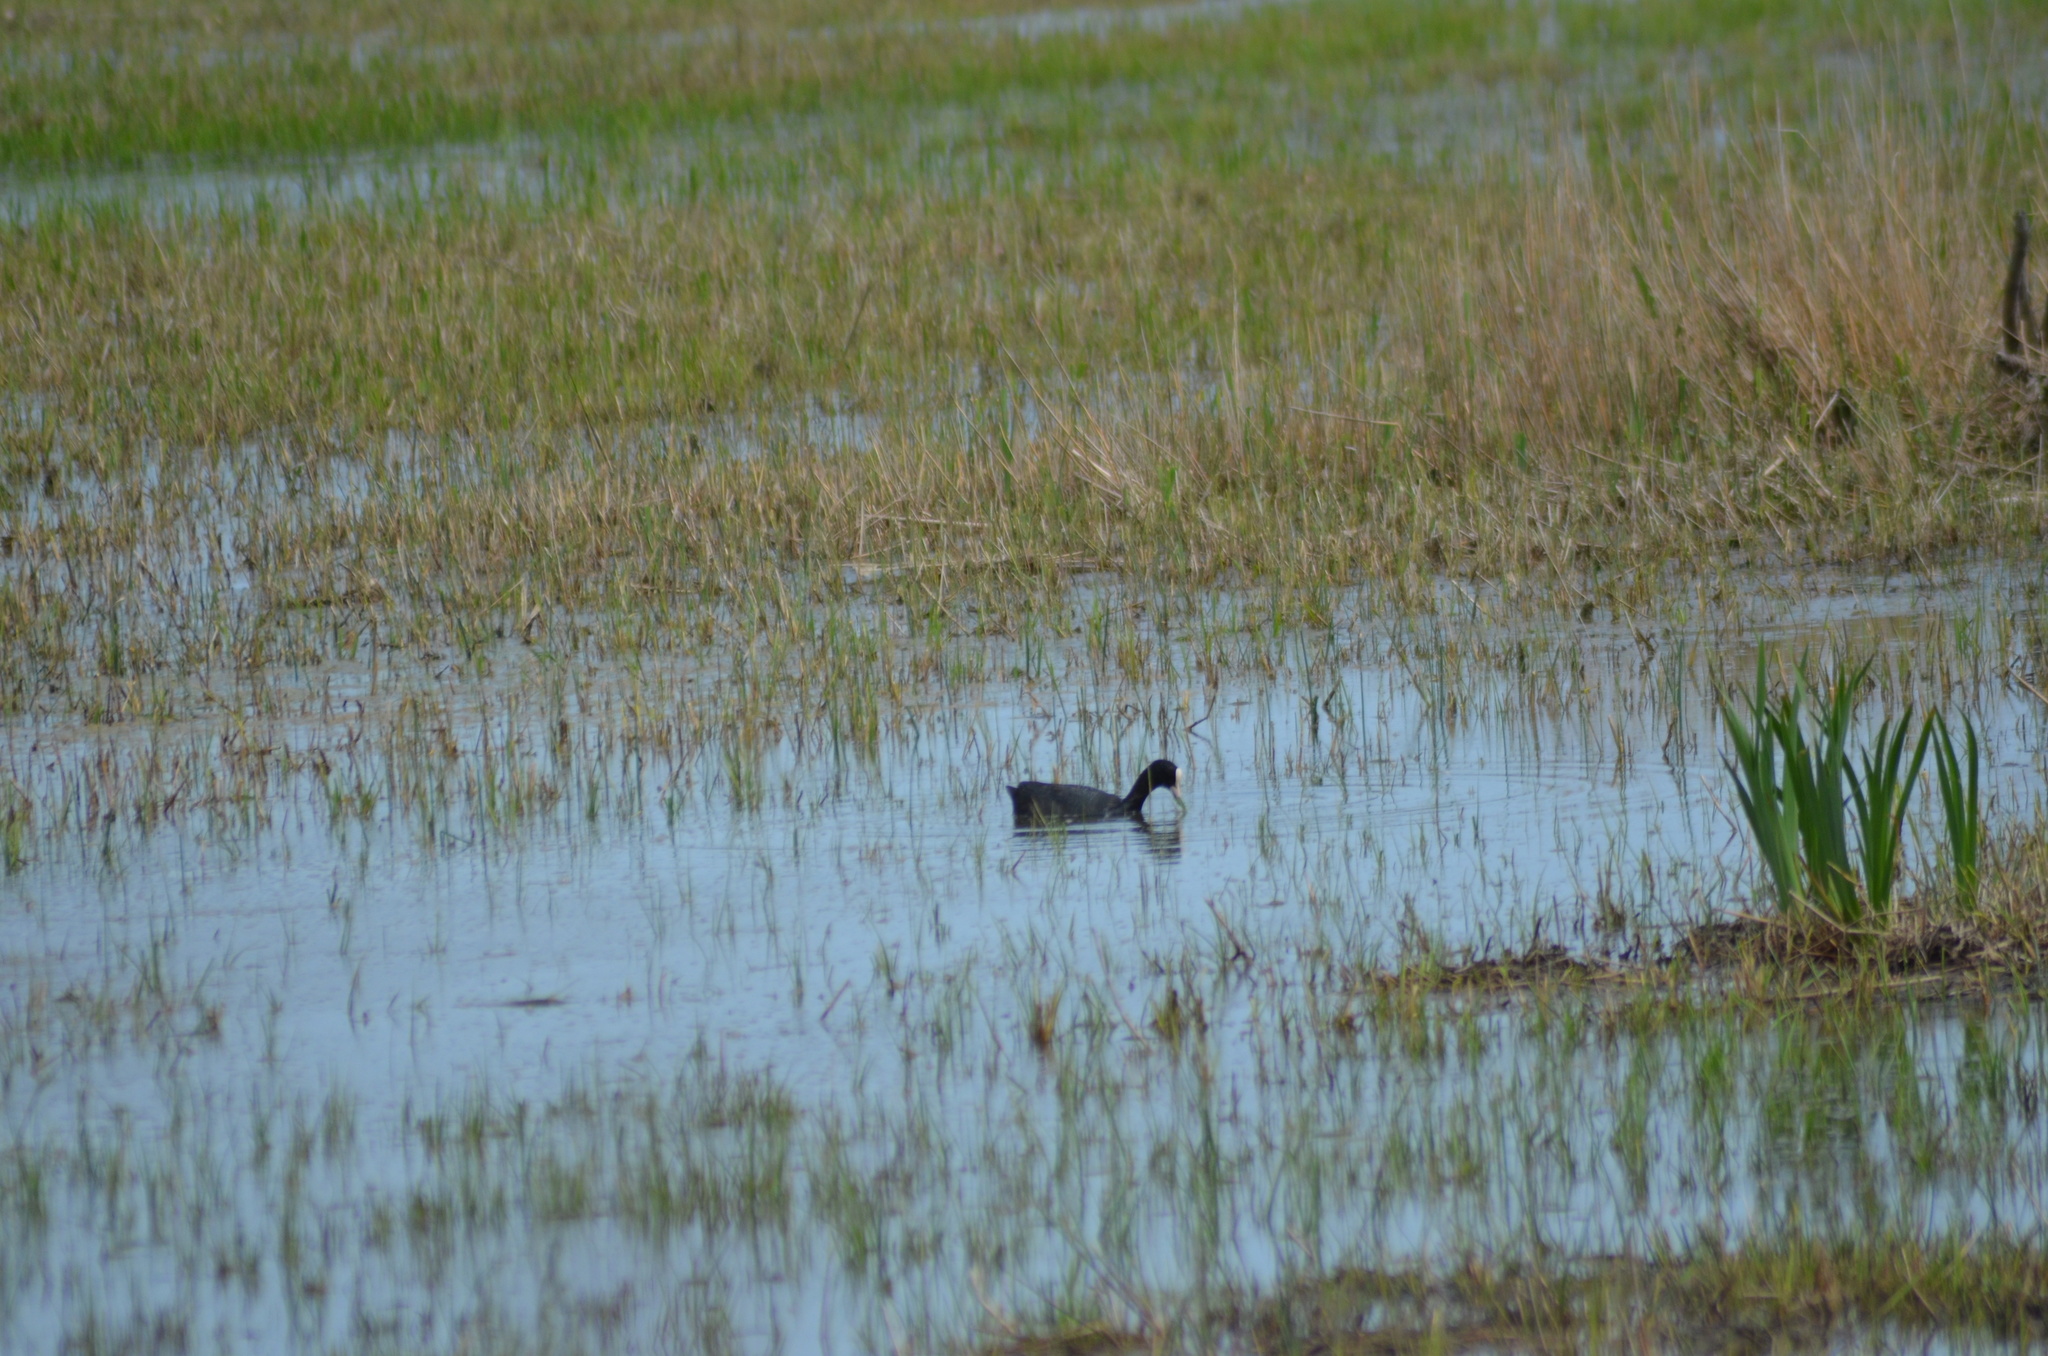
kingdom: Animalia
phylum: Chordata
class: Aves
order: Gruiformes
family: Rallidae
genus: Fulica
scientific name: Fulica atra
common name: Eurasian coot
